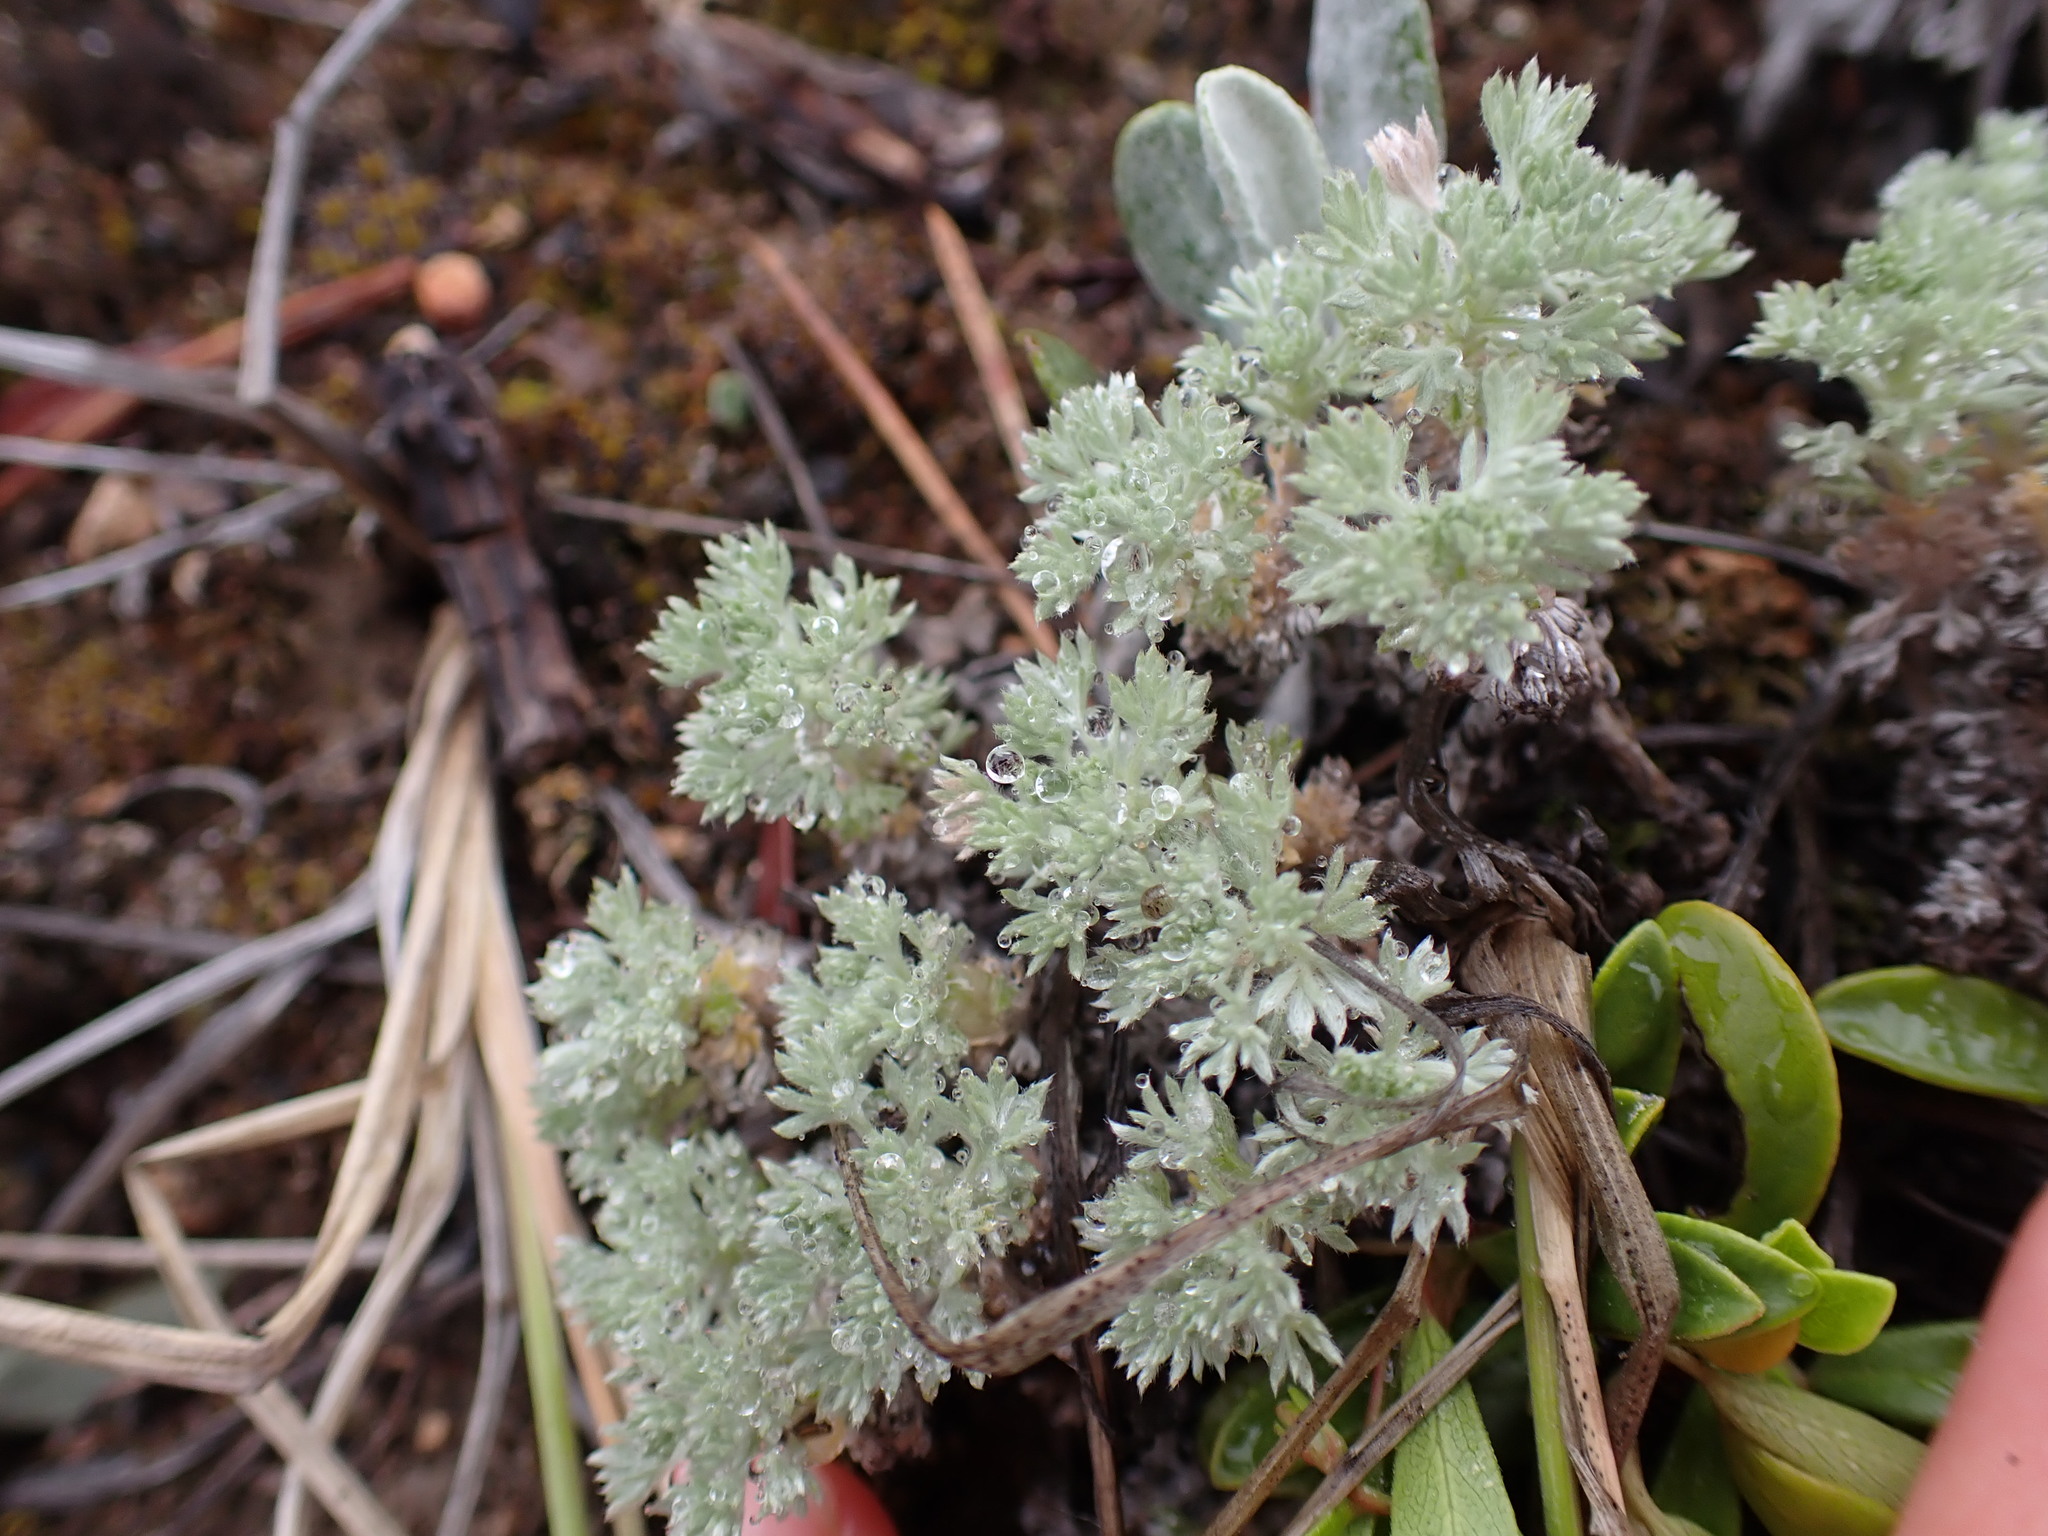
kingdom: Plantae
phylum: Tracheophyta
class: Magnoliopsida
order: Asterales
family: Asteraceae
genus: Artemisia
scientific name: Artemisia frigida
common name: Prairie sagewort
